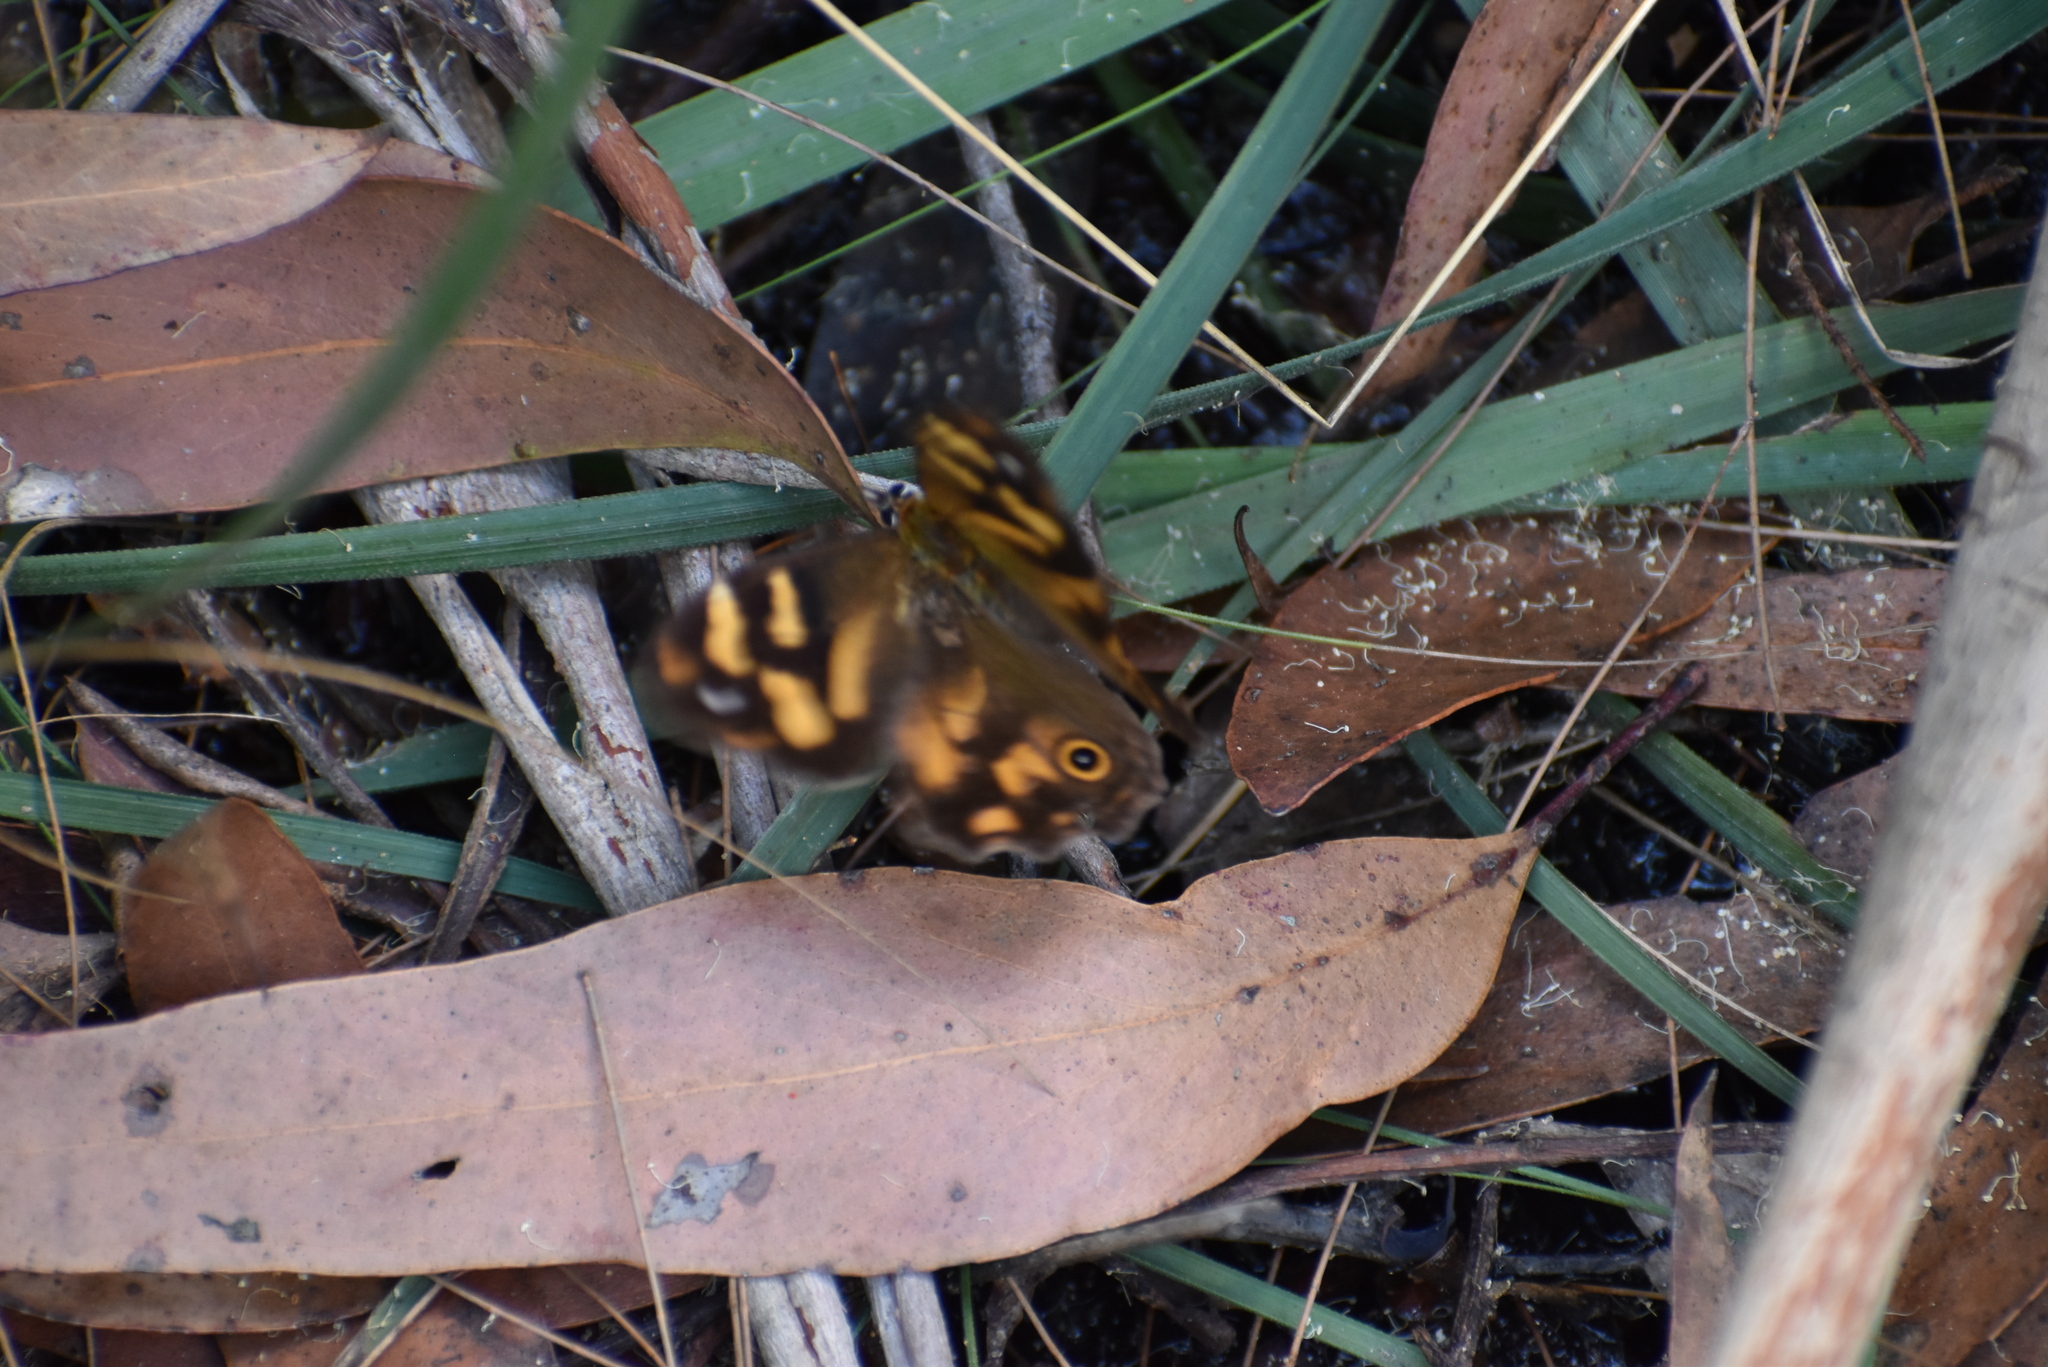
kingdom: Animalia
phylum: Arthropoda
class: Insecta
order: Lepidoptera
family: Nymphalidae
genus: Heteronympha
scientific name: Heteronympha banksii
